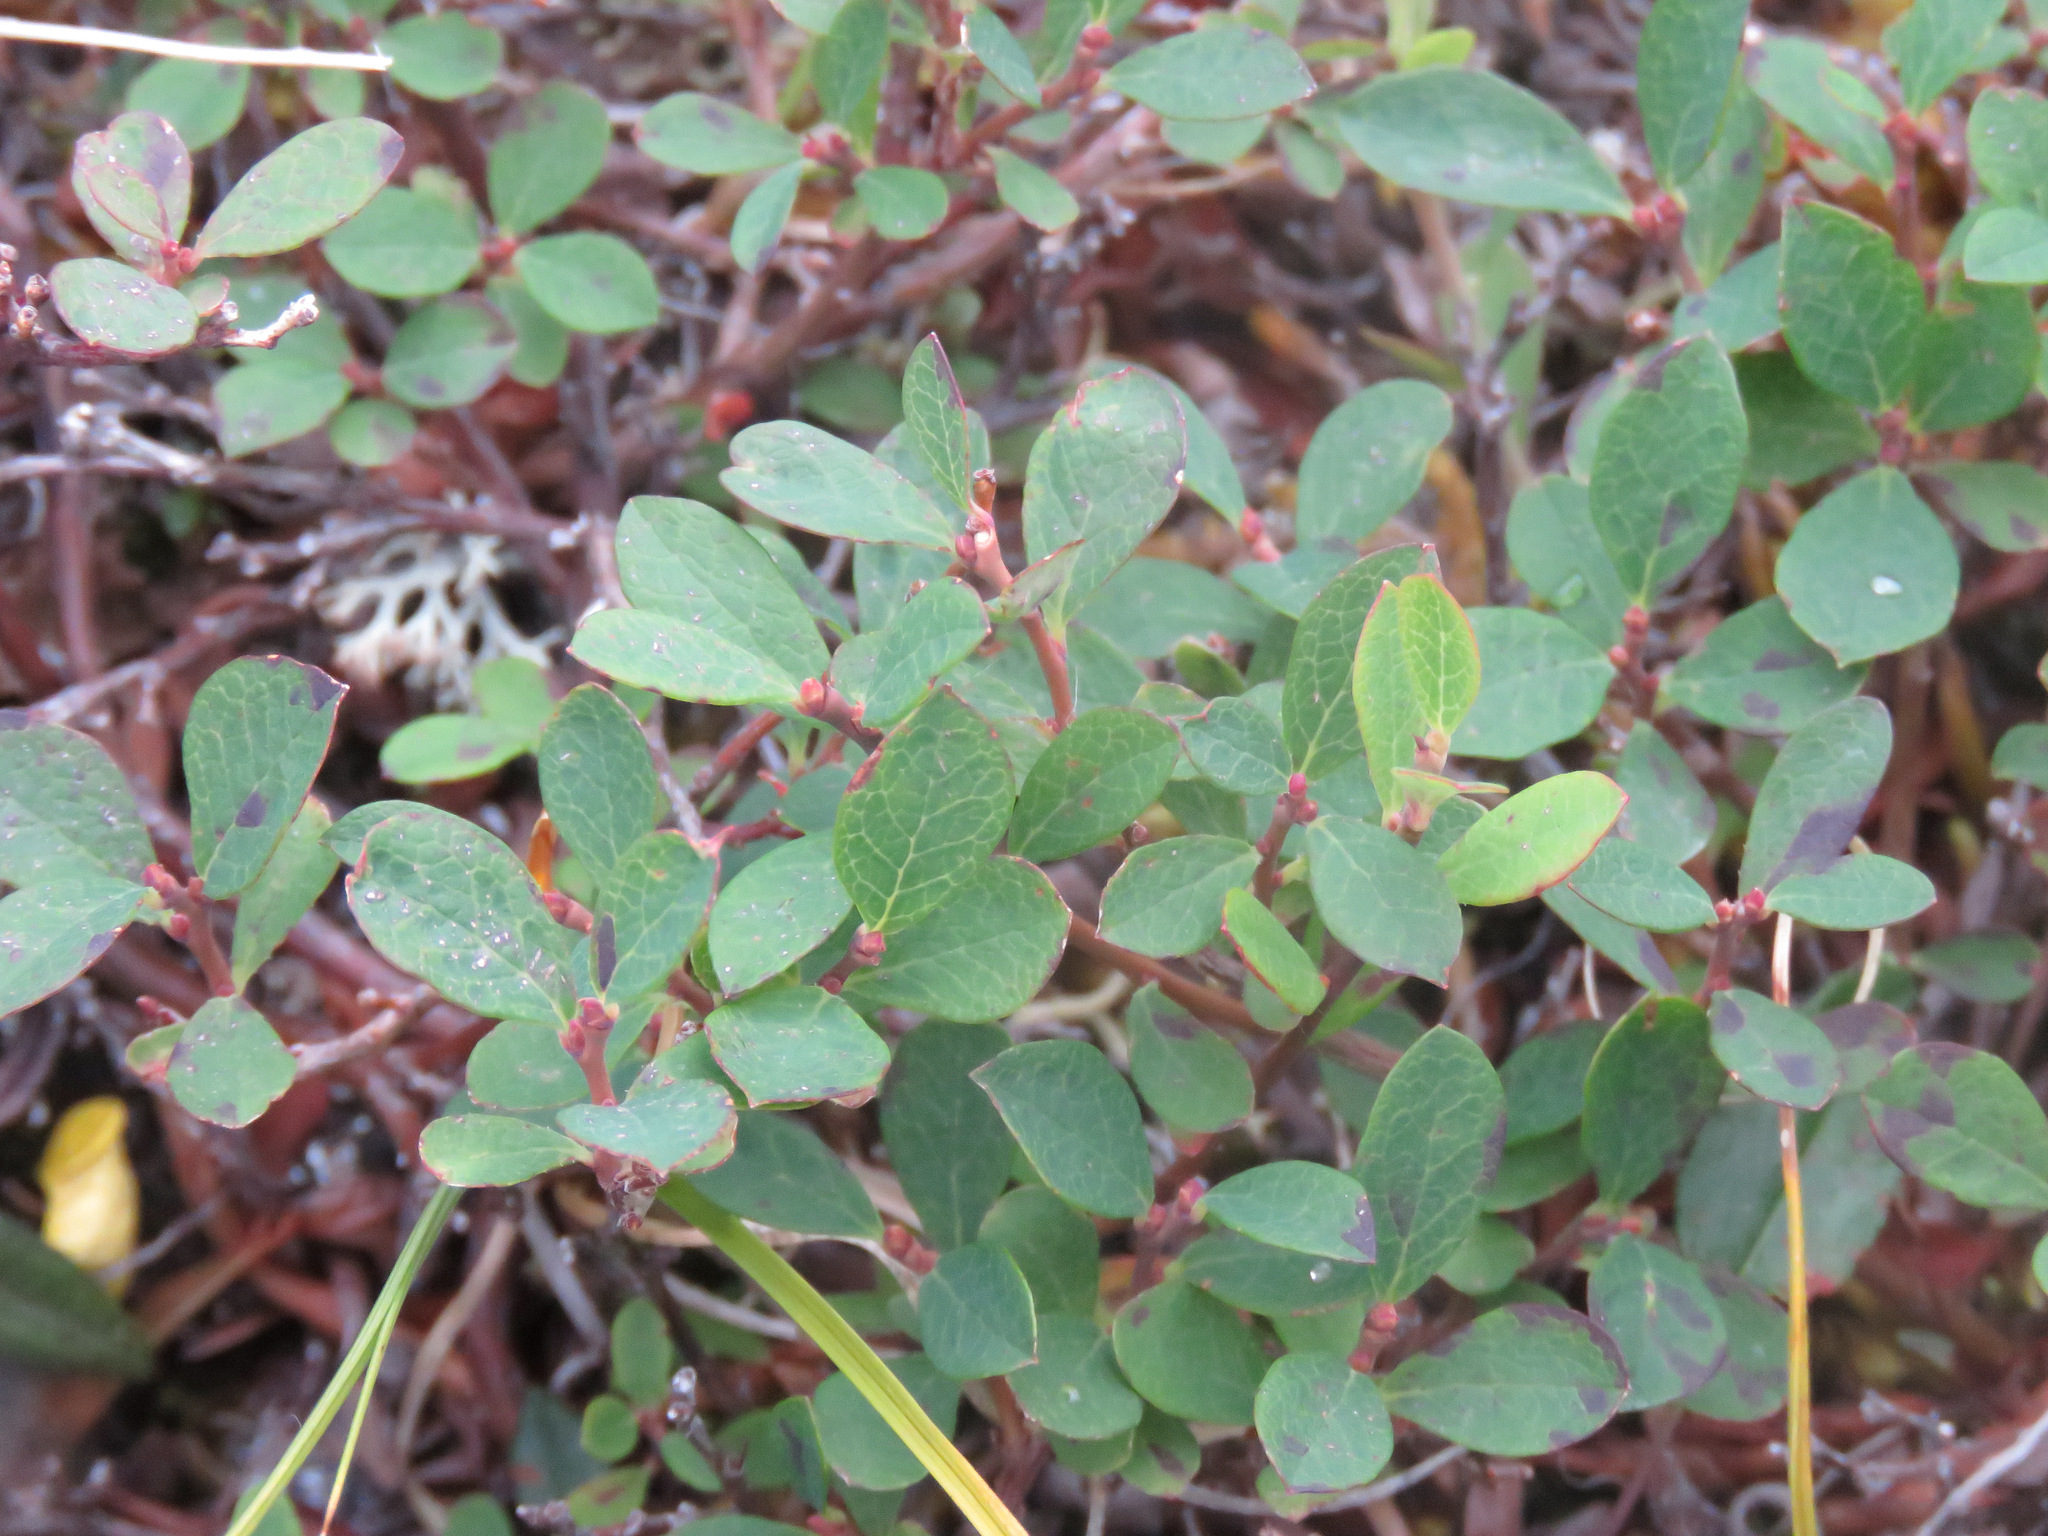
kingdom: Plantae
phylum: Tracheophyta
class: Magnoliopsida
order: Ericales
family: Ericaceae
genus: Vaccinium
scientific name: Vaccinium uliginosum
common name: Bog bilberry
